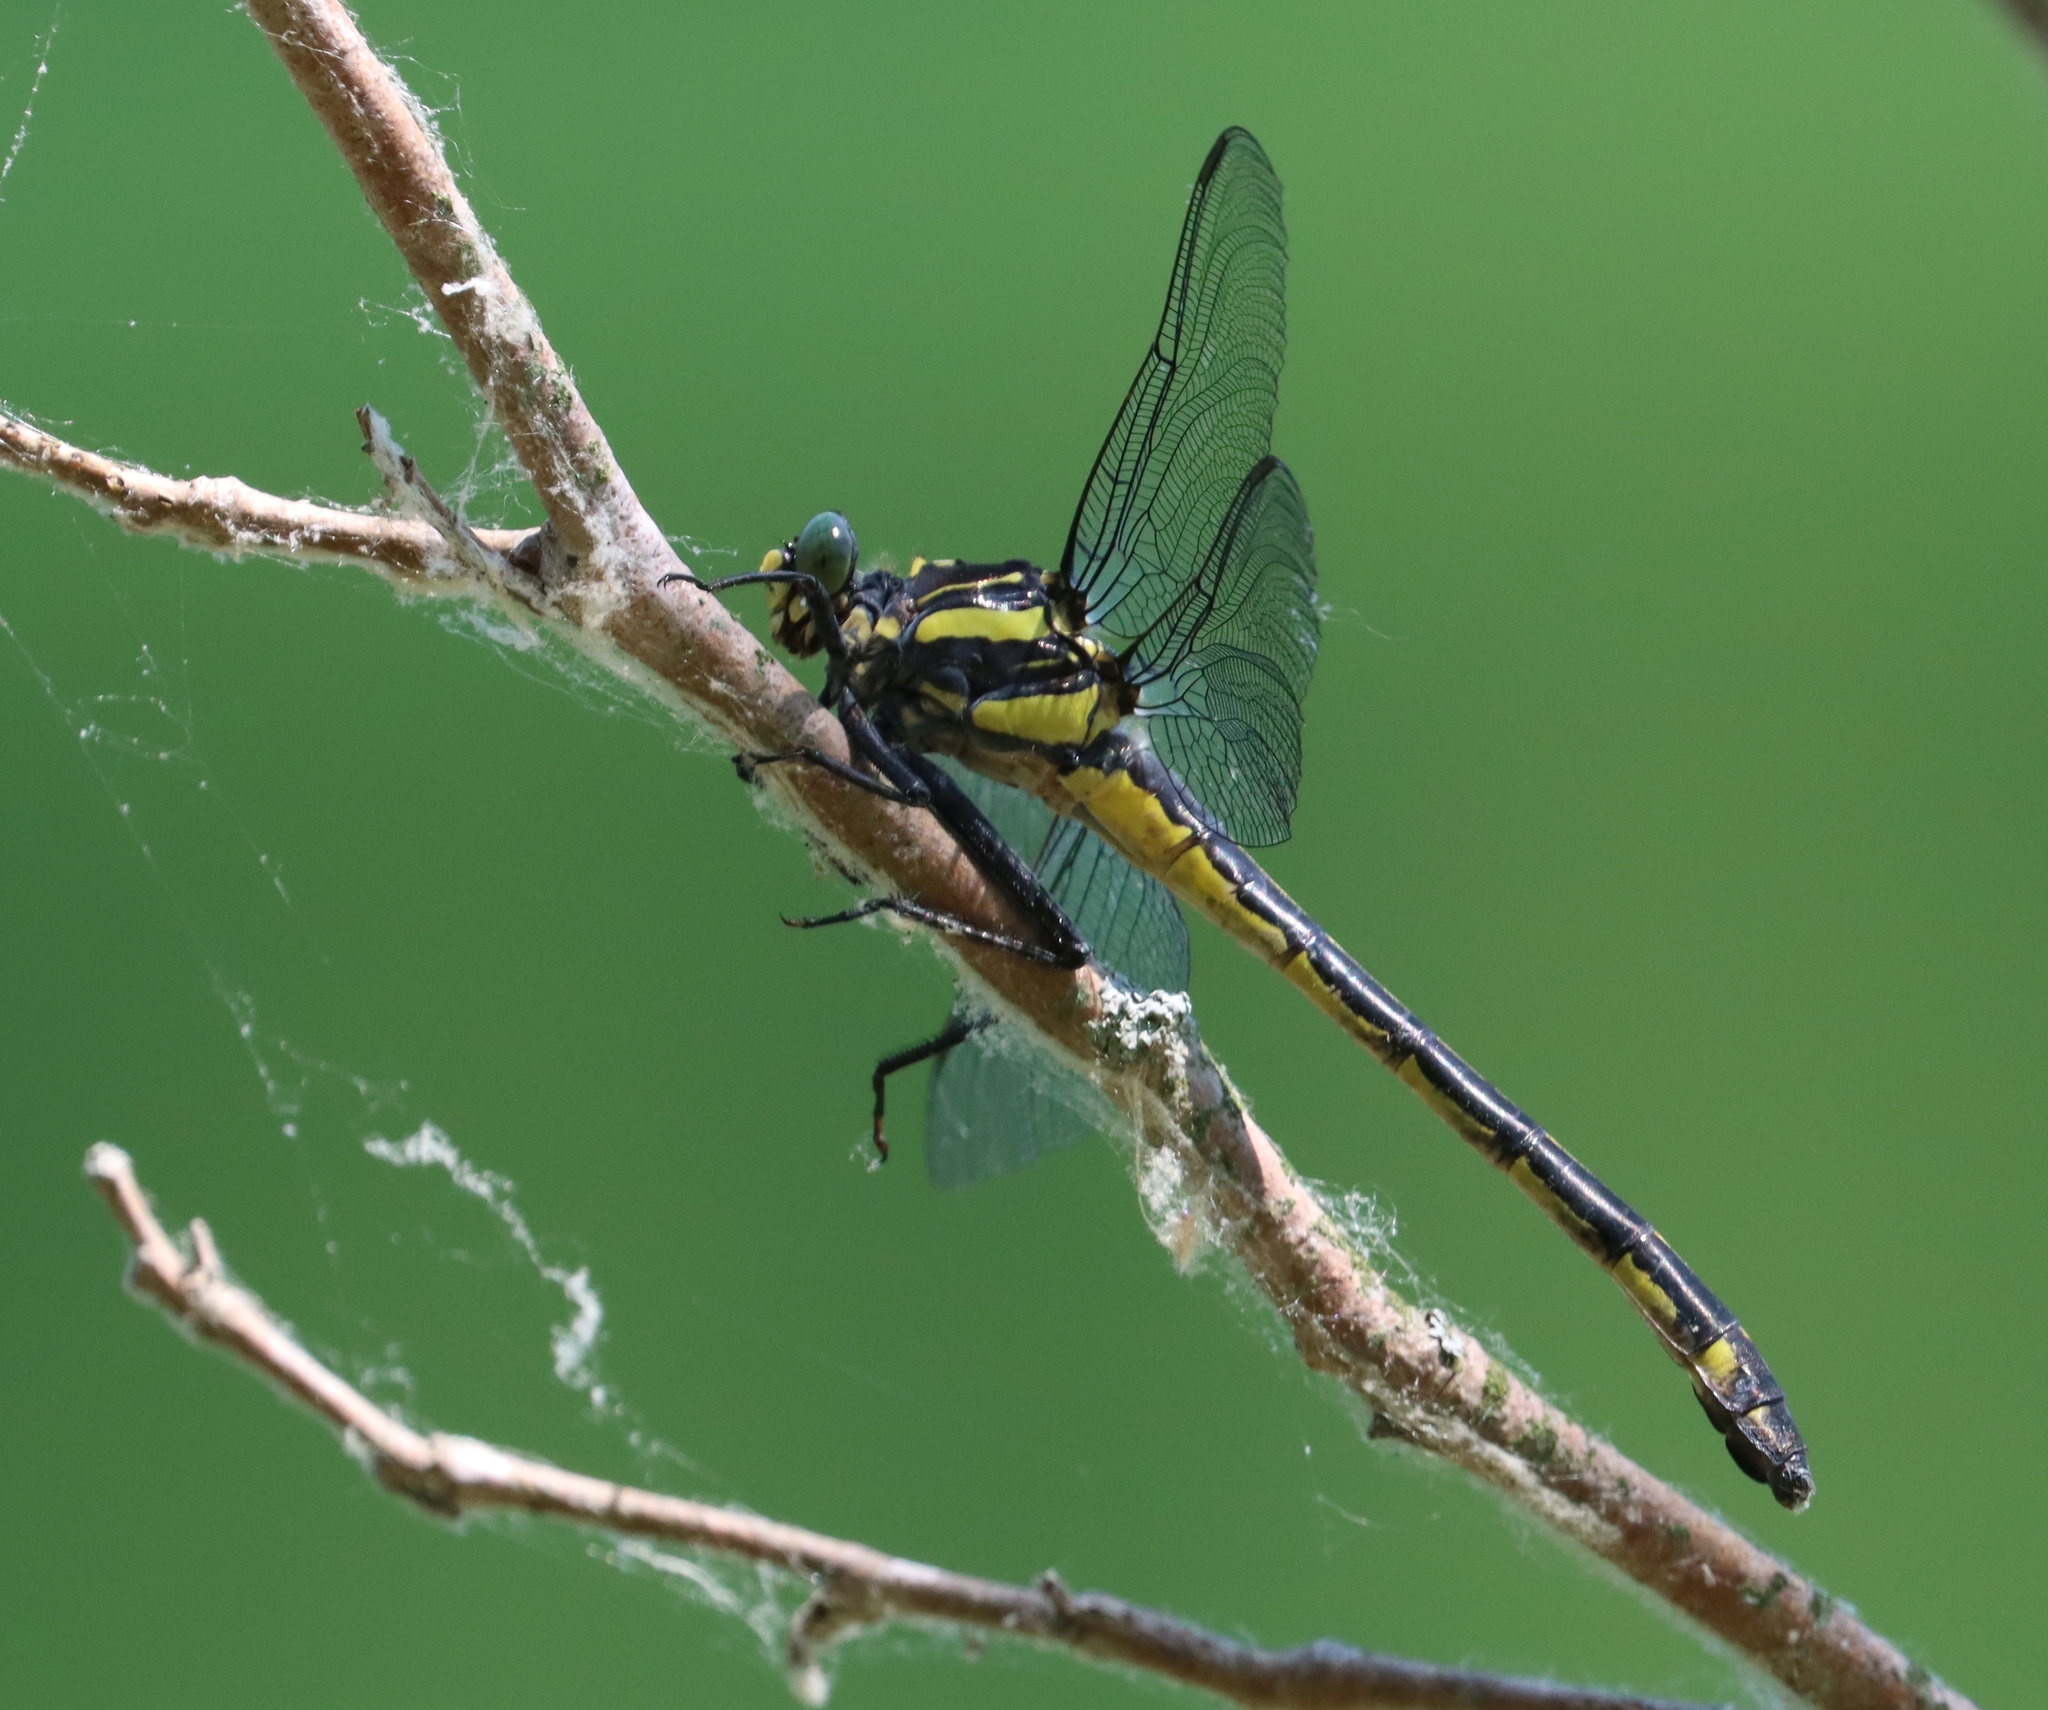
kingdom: Animalia
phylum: Arthropoda
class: Insecta
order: Odonata
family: Gomphidae
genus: Hagenius
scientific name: Hagenius brevistylus
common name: Dragonhunter
